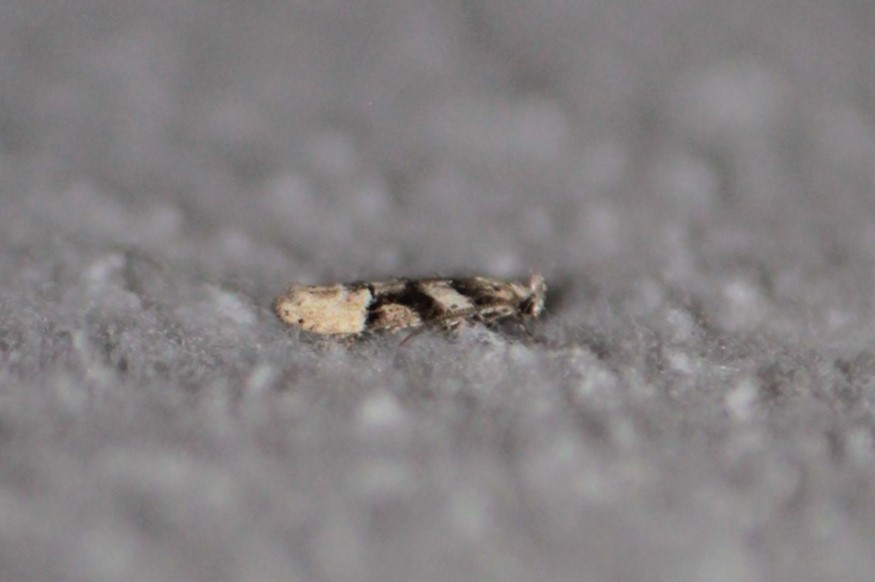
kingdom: Animalia
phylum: Arthropoda
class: Insecta
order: Lepidoptera
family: Gelechiidae
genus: Coleotechnites
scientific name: Coleotechnites atrupictella
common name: Spruce micromoth
